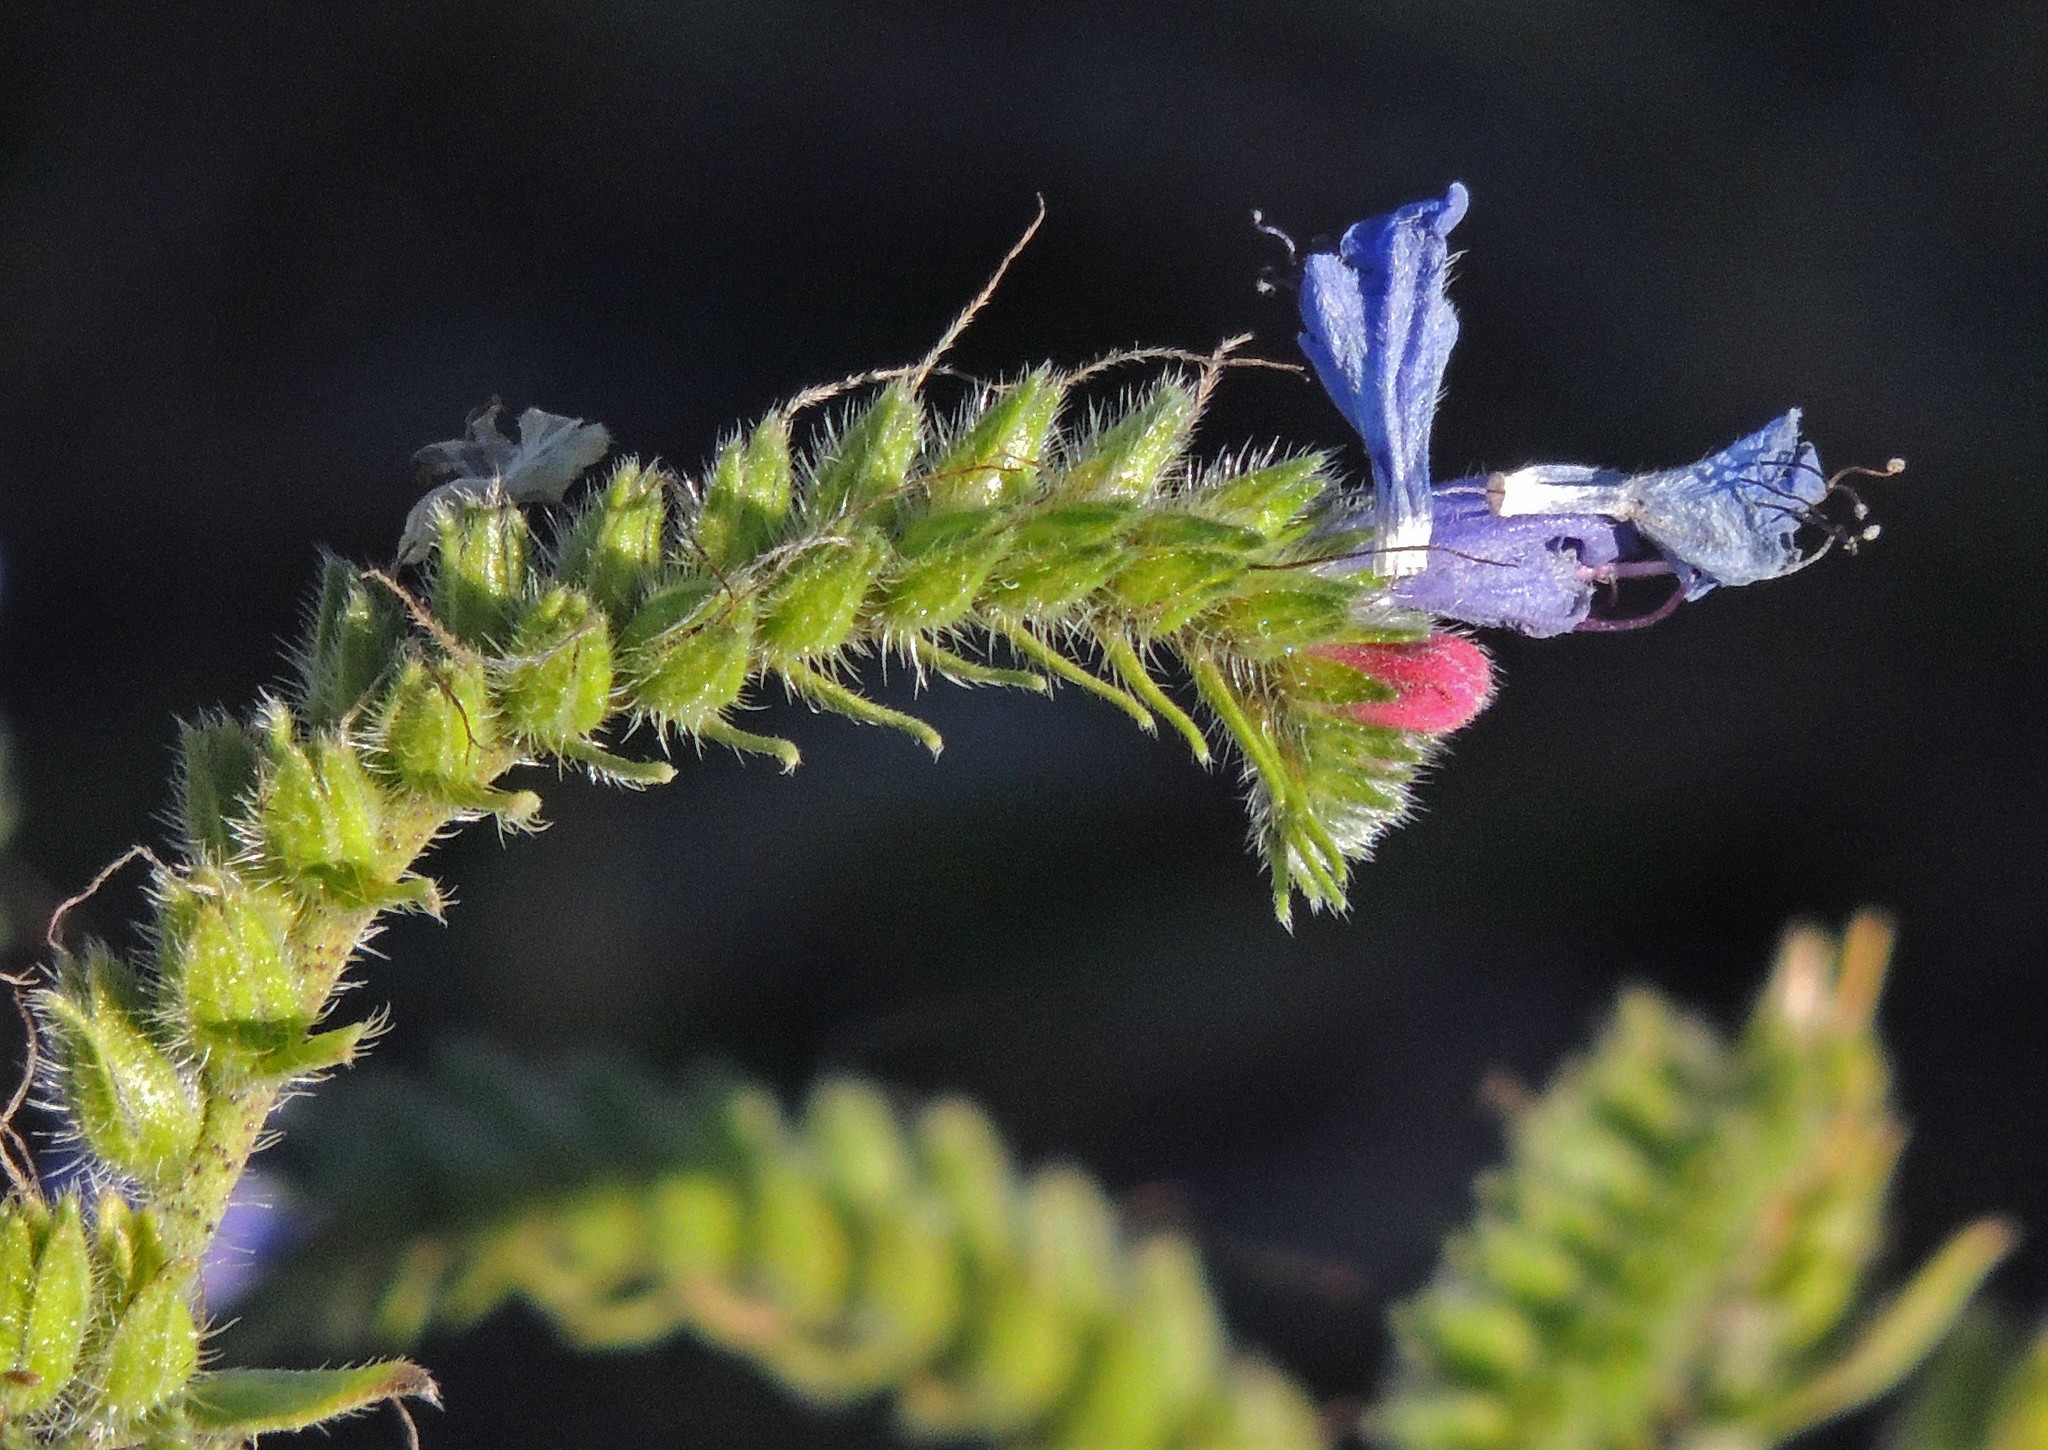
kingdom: Plantae
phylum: Tracheophyta
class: Magnoliopsida
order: Boraginales
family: Boraginaceae
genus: Echium
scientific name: Echium vulgare
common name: Common viper's bugloss
